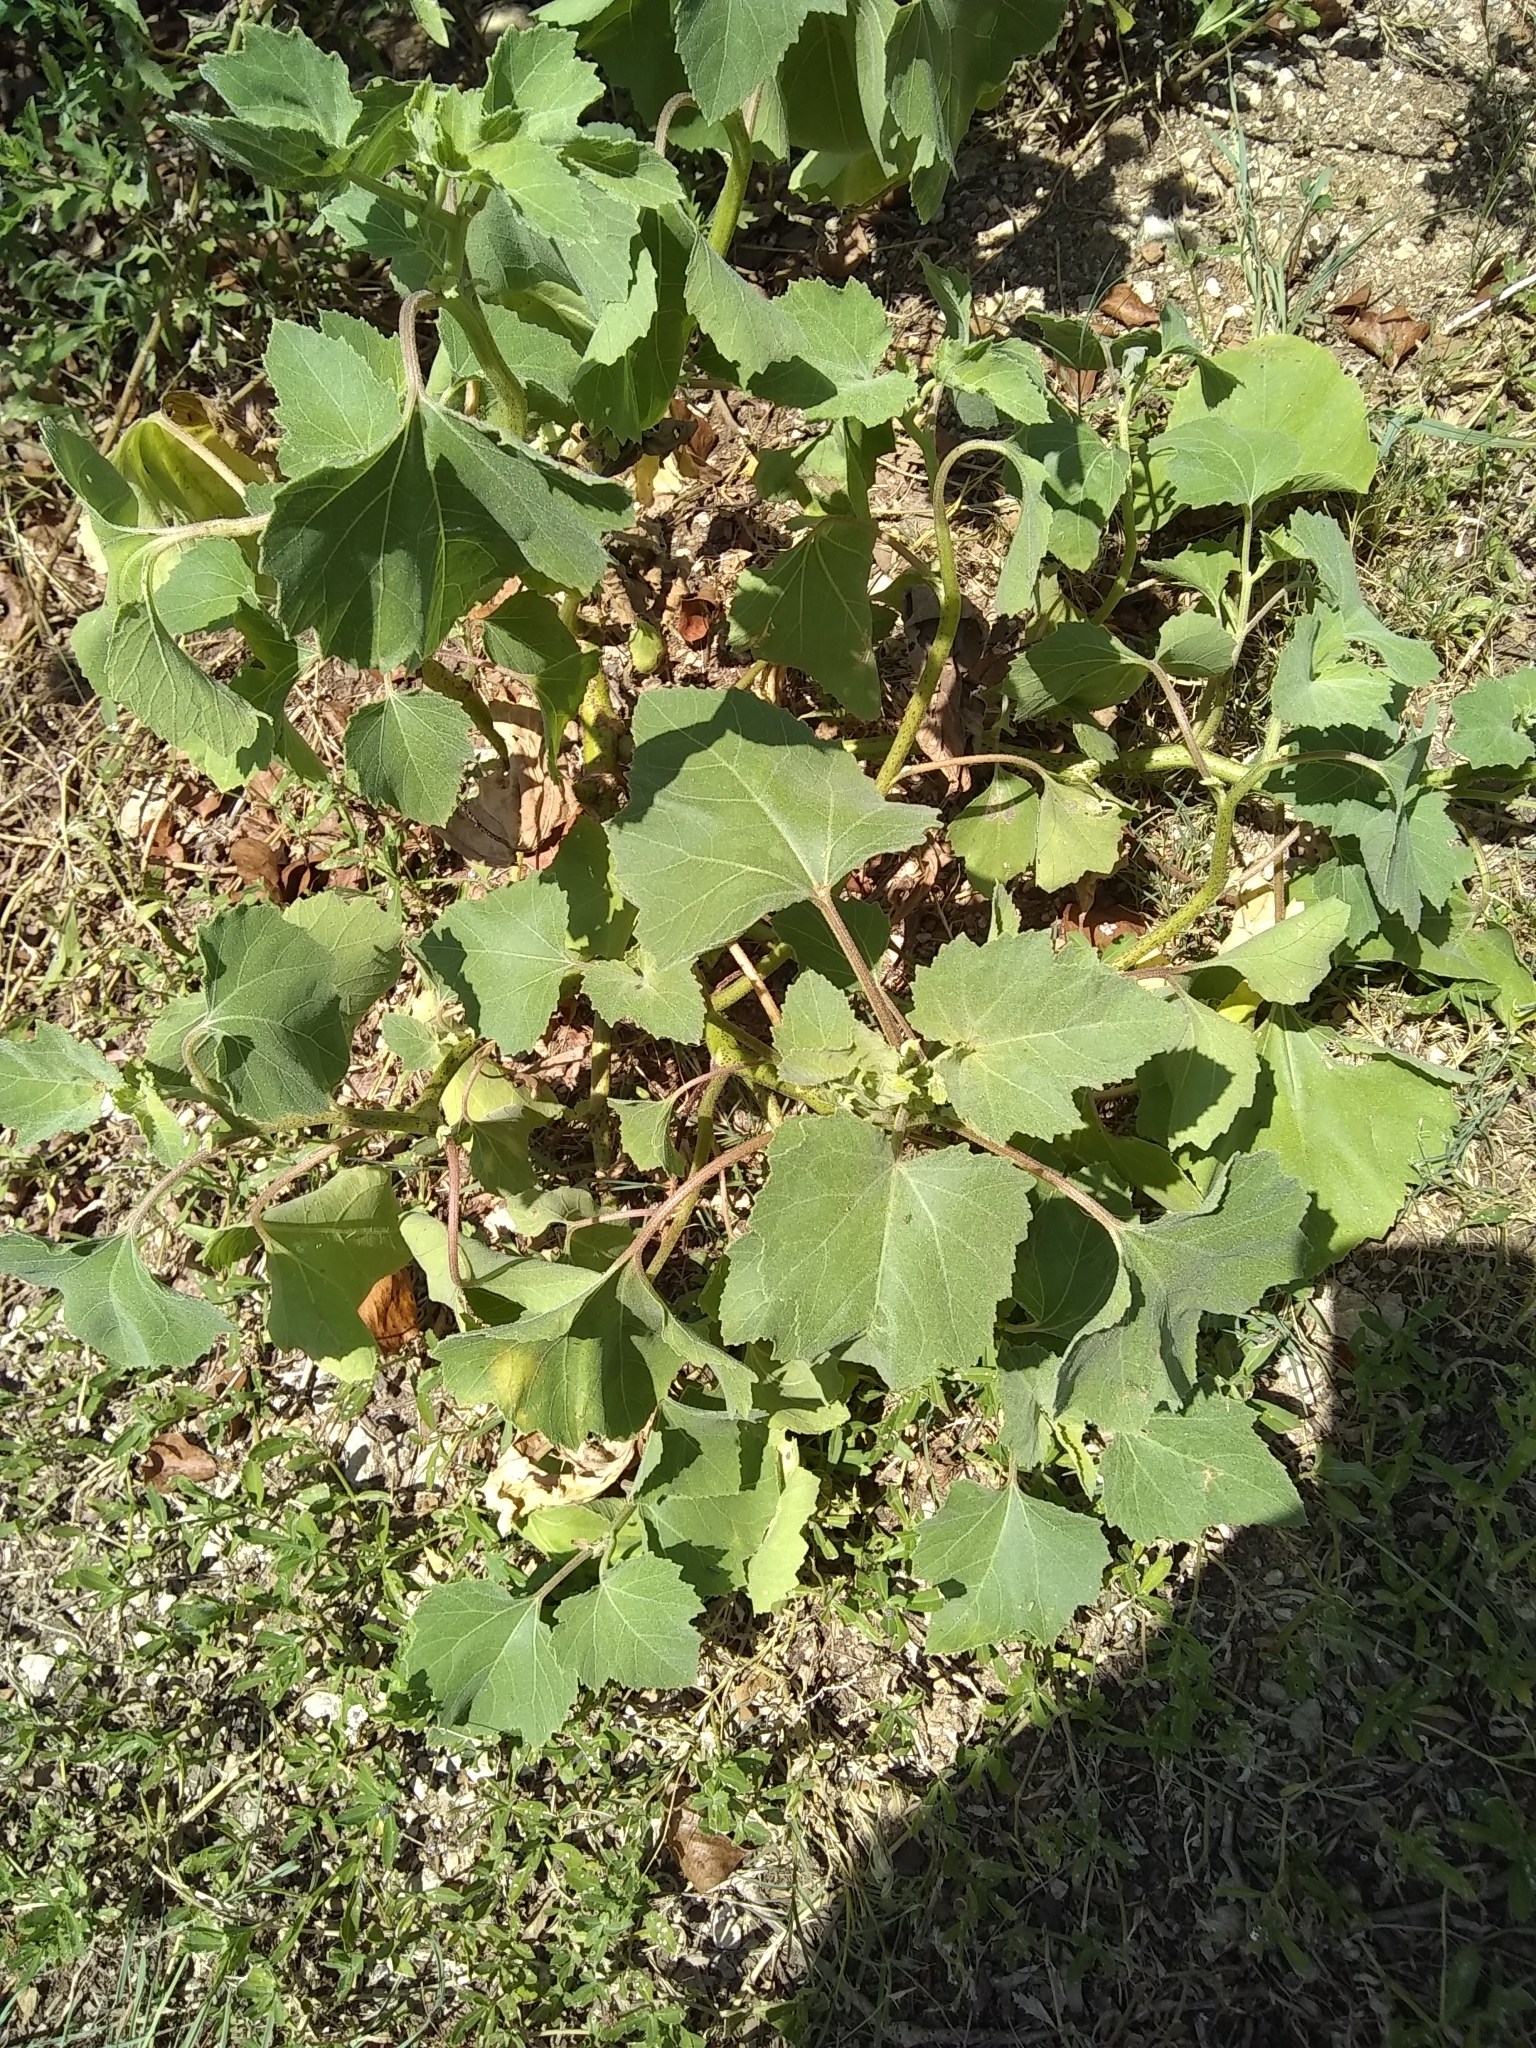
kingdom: Plantae
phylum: Tracheophyta
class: Magnoliopsida
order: Asterales
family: Asteraceae
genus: Xanthium
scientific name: Xanthium strumarium
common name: Rough cocklebur
